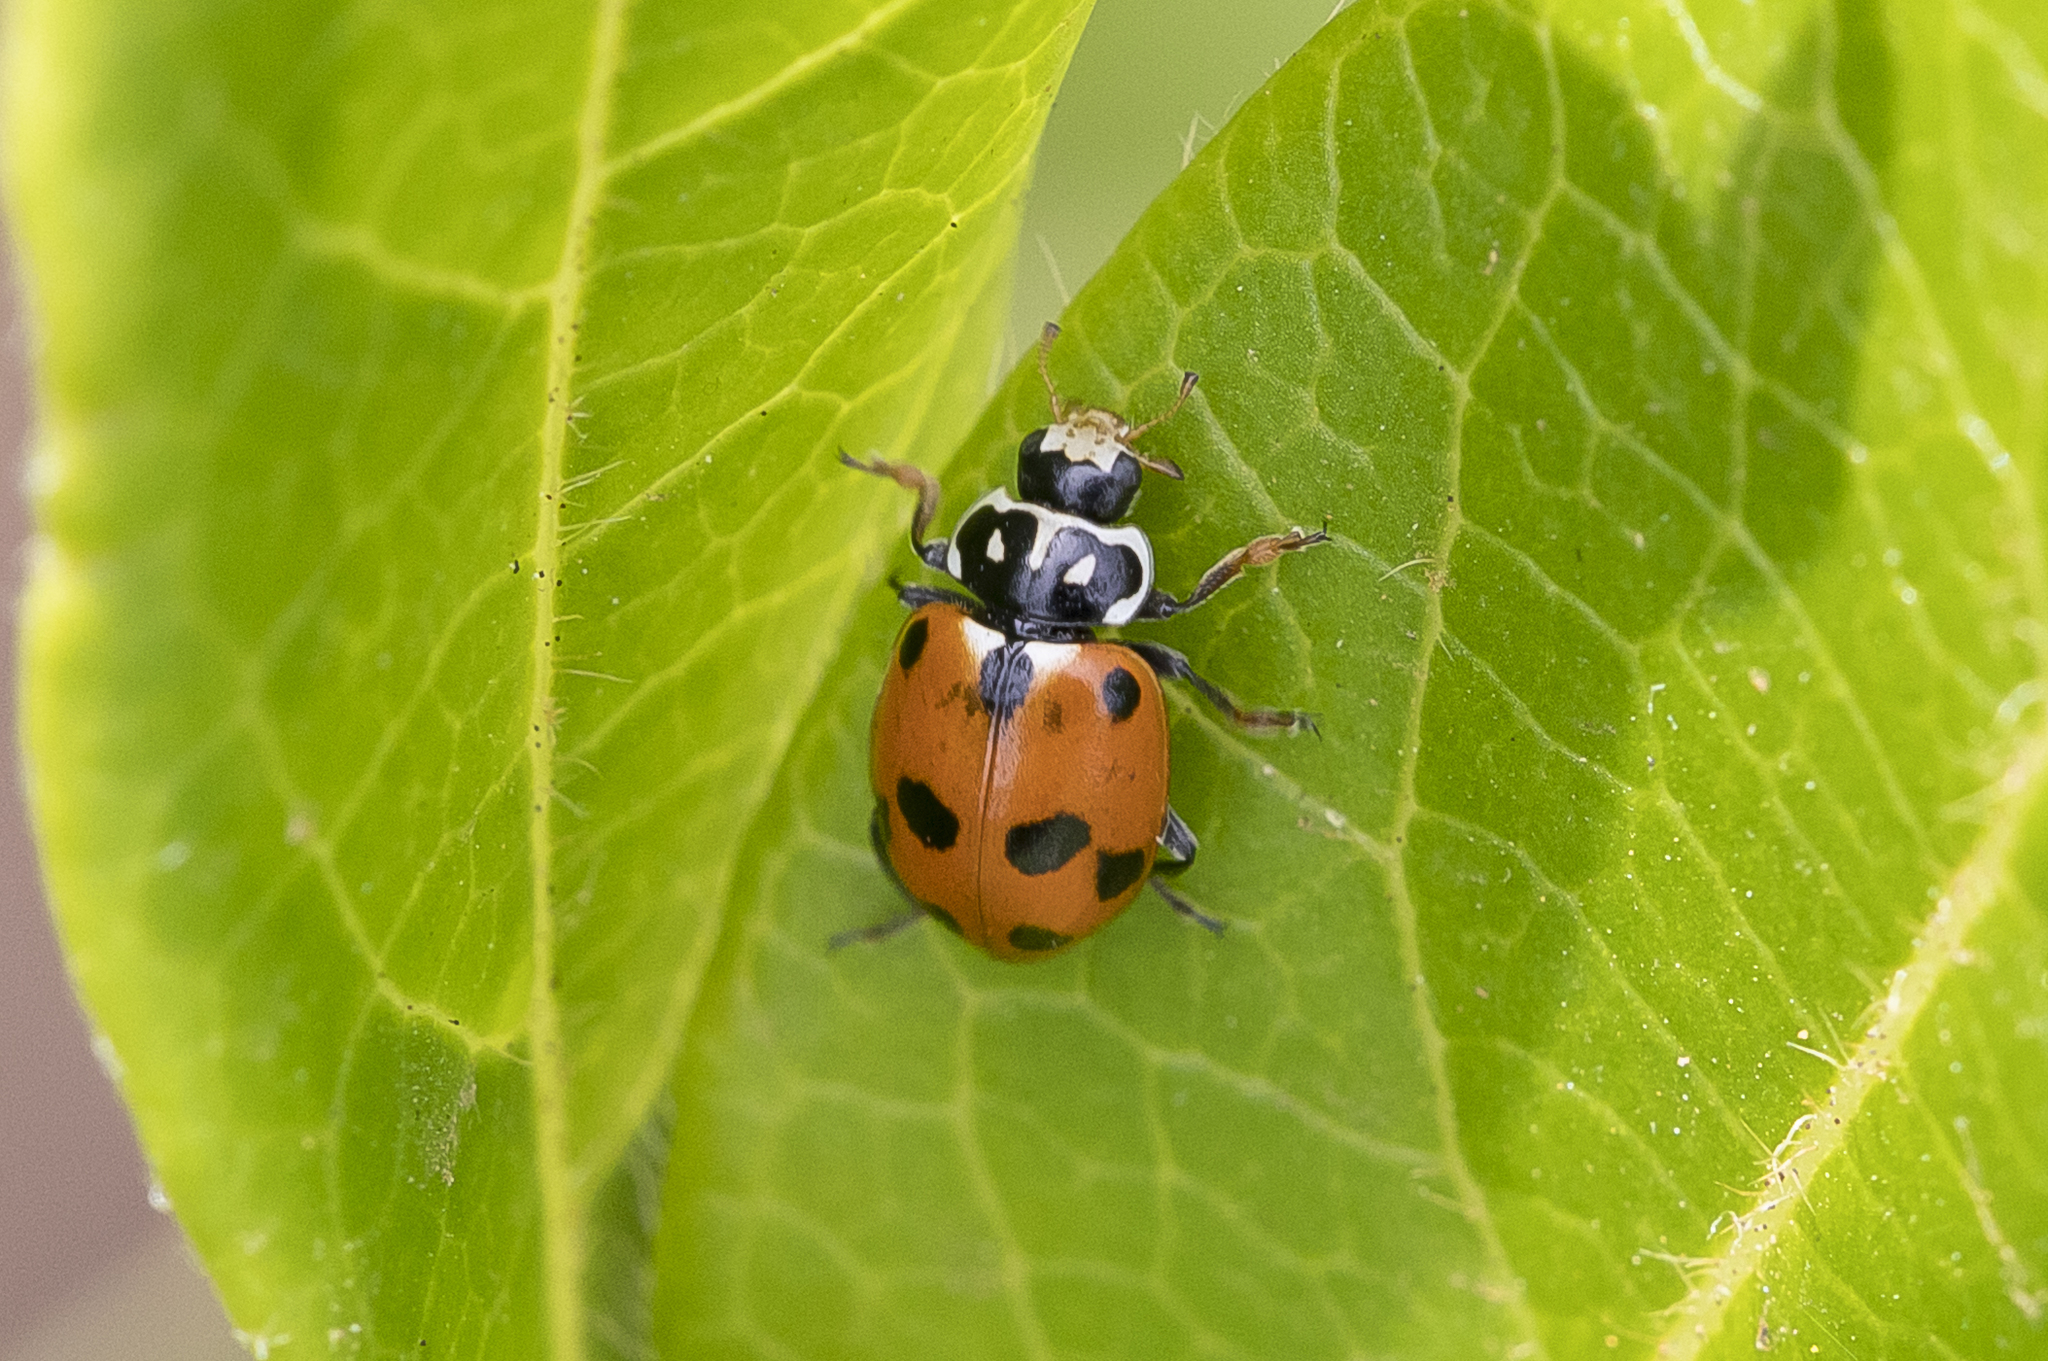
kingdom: Animalia
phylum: Arthropoda
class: Insecta
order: Coleoptera
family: Coccinellidae
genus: Hippodamia
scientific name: Hippodamia variegata
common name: Ladybird beetle
